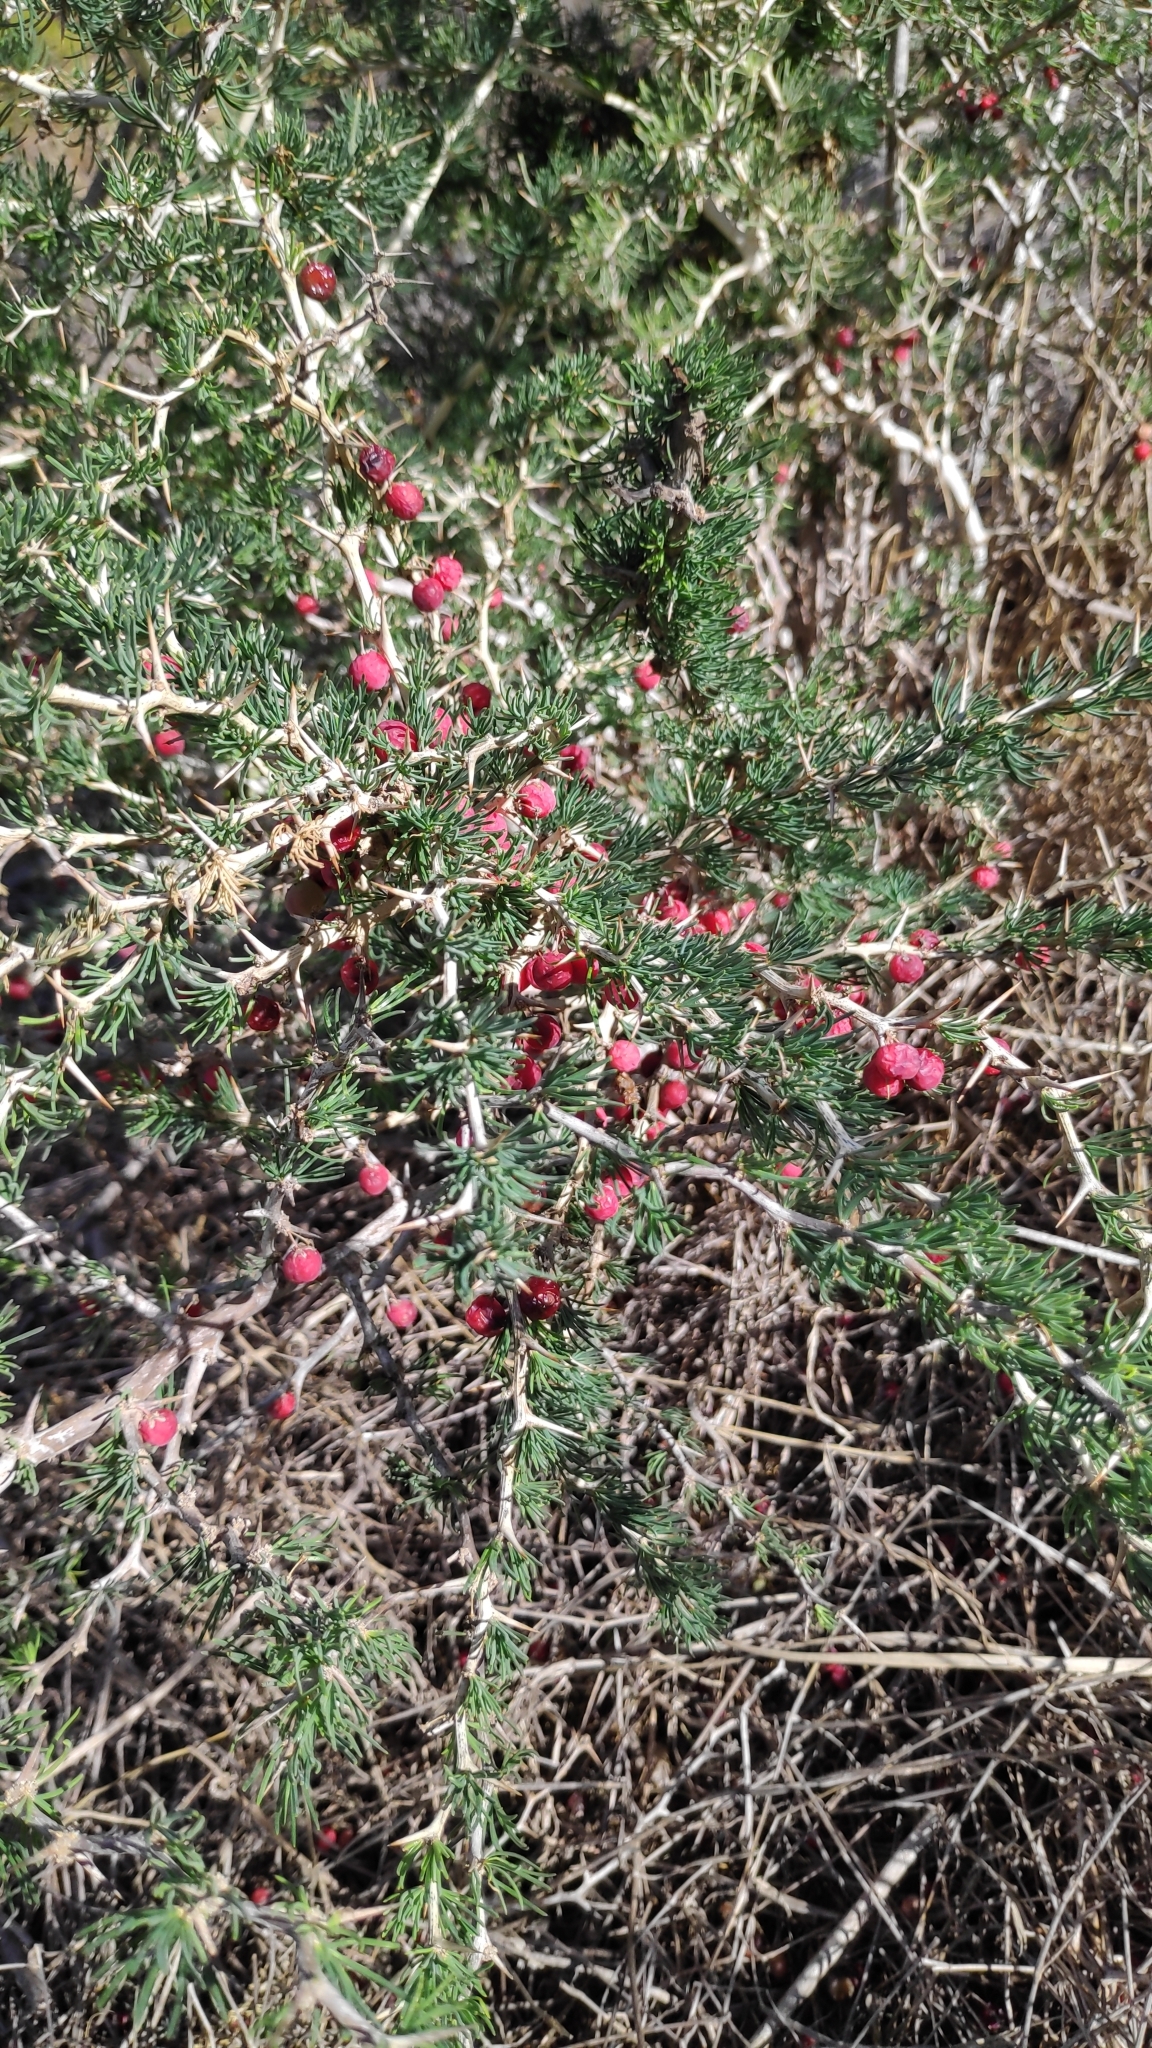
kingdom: Plantae
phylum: Tracheophyta
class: Liliopsida
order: Asparagales
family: Asparagaceae
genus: Asparagus
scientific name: Asparagus albus
